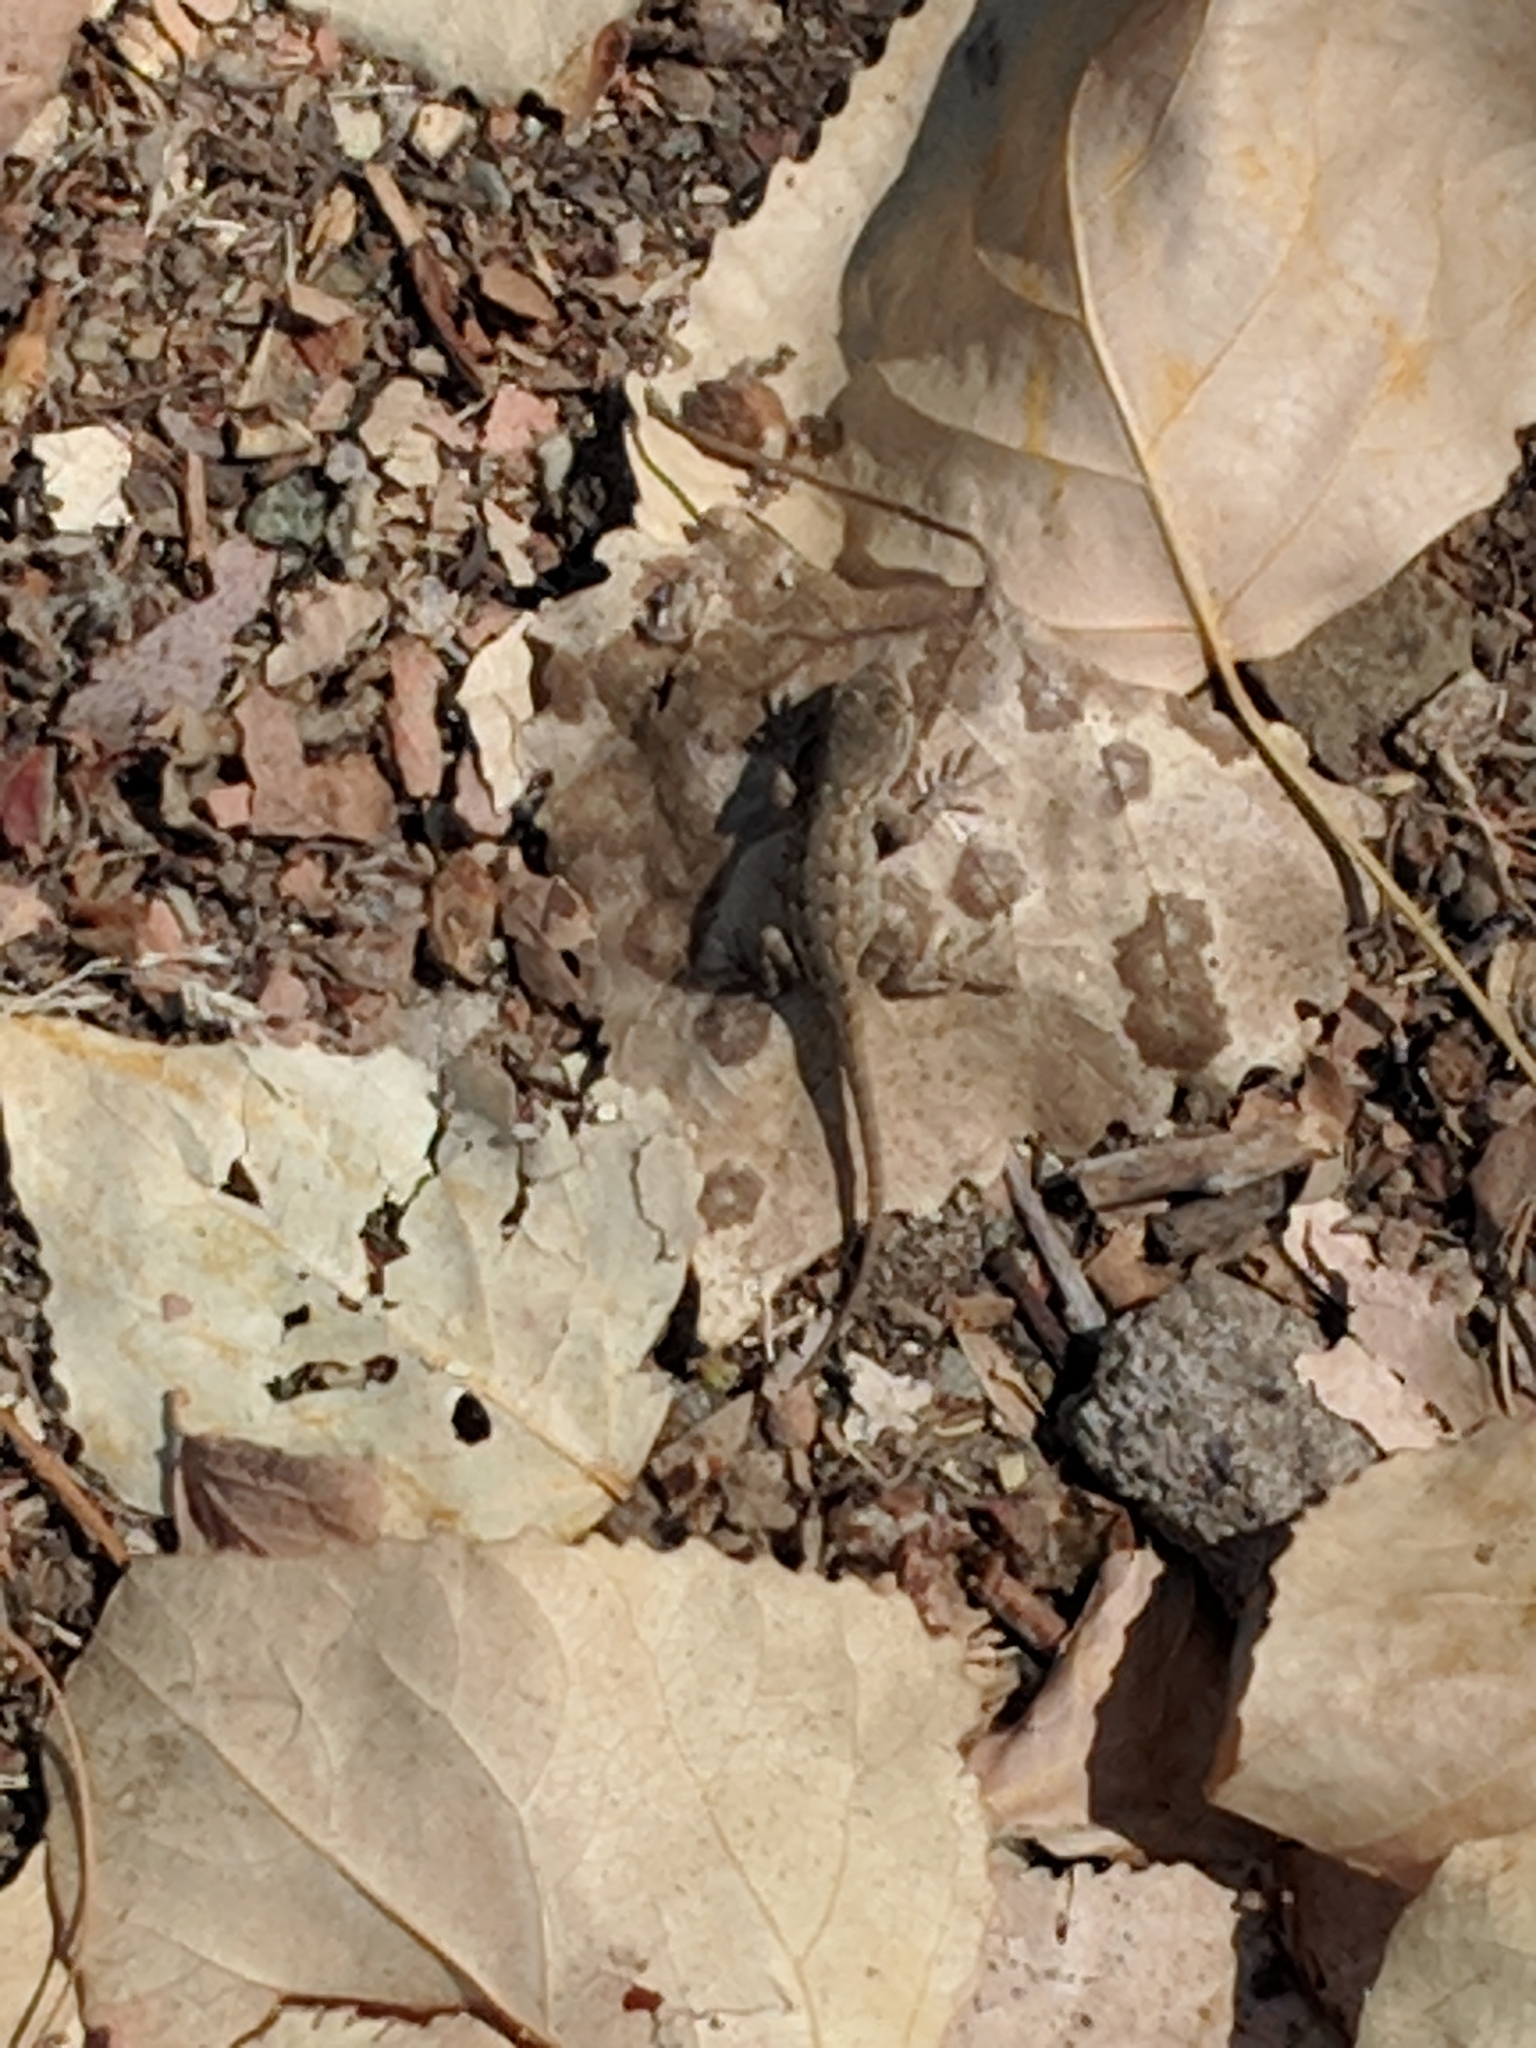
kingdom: Animalia
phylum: Chordata
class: Squamata
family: Phrynosomatidae
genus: Sceloporus
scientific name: Sceloporus occidentalis
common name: Western fence lizard
